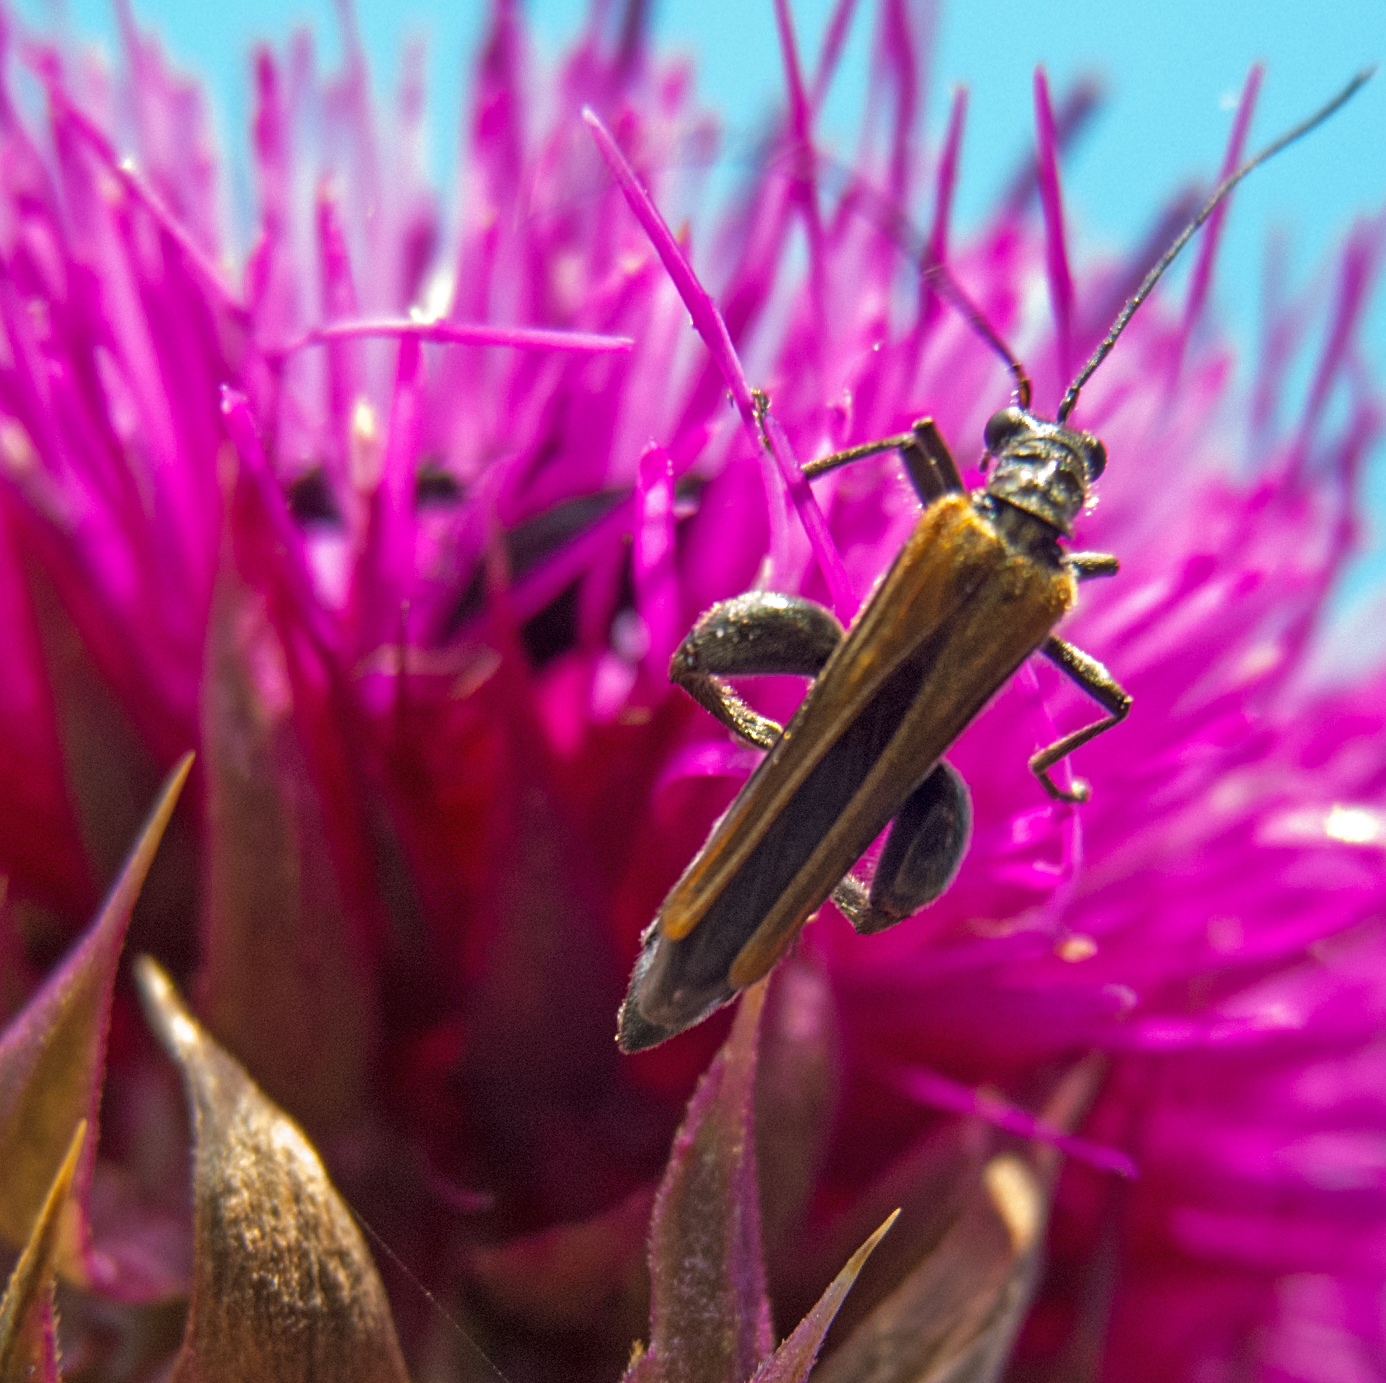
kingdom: Animalia
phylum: Arthropoda
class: Insecta
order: Coleoptera
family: Oedemeridae
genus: Oedemera
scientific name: Oedemera femorata
